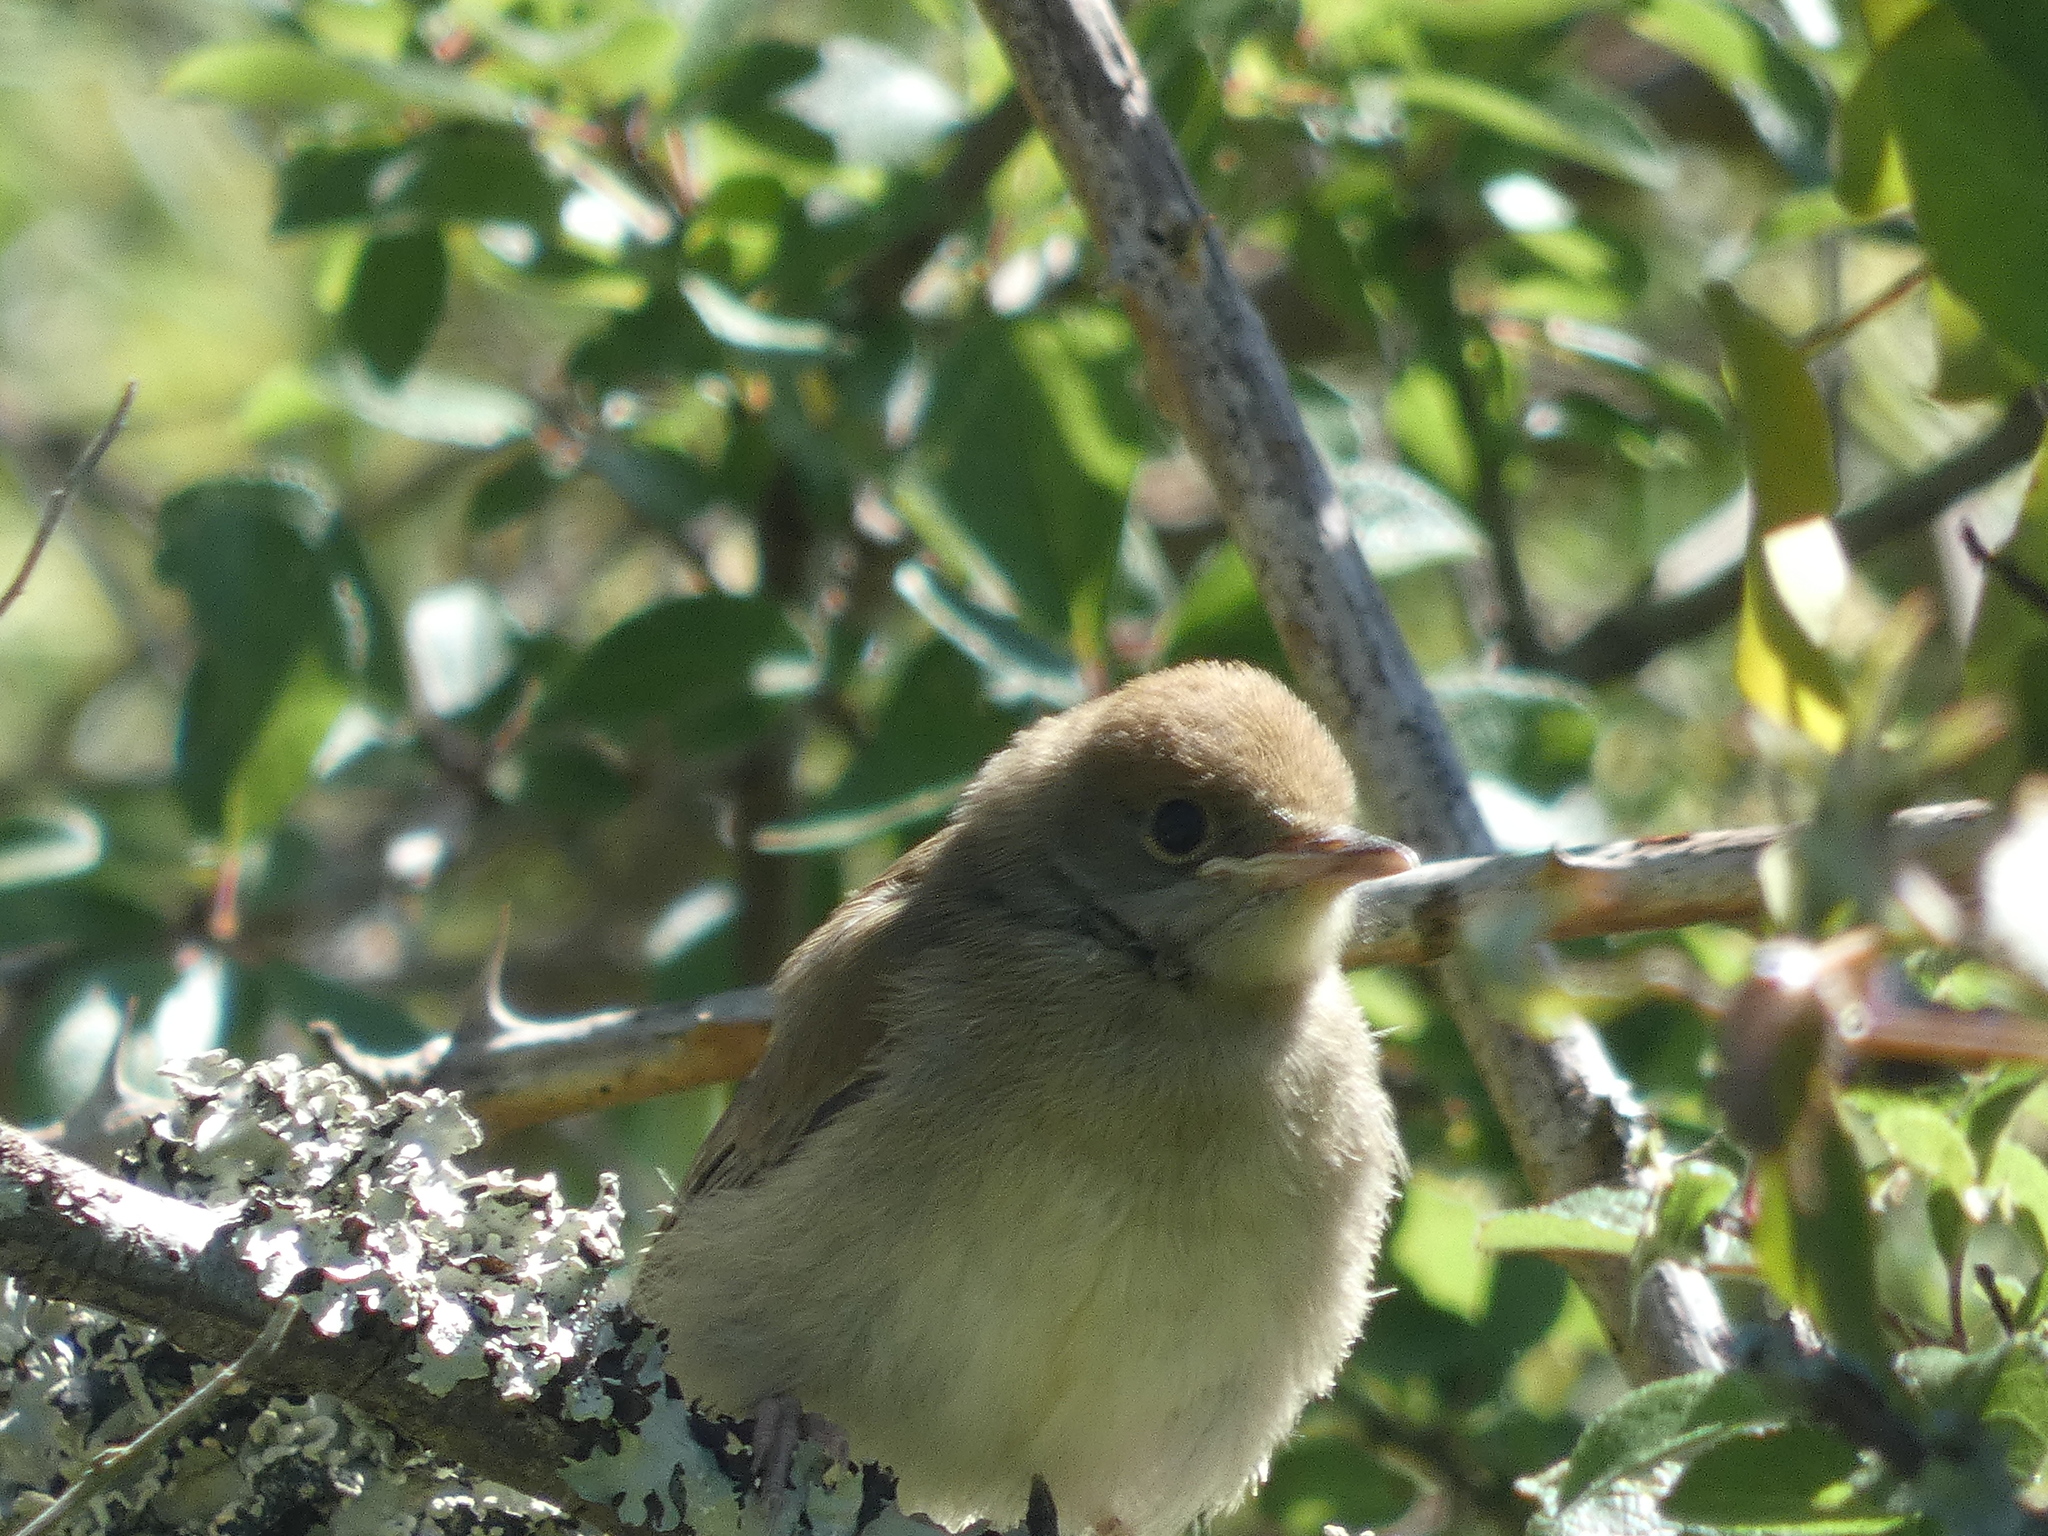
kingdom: Animalia
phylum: Chordata
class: Aves
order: Passeriformes
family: Sylviidae
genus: Sylvia
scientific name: Sylvia atricapilla
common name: Eurasian blackcap
